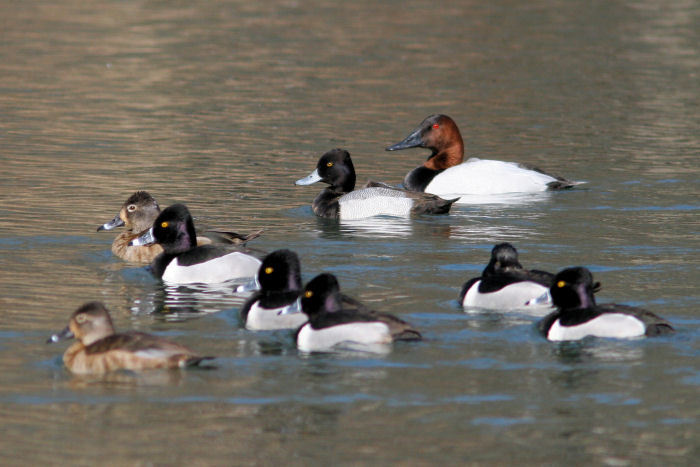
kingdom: Animalia
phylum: Chordata
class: Aves
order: Anseriformes
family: Anatidae
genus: Aythya
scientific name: Aythya valisineria
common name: Canvasback
